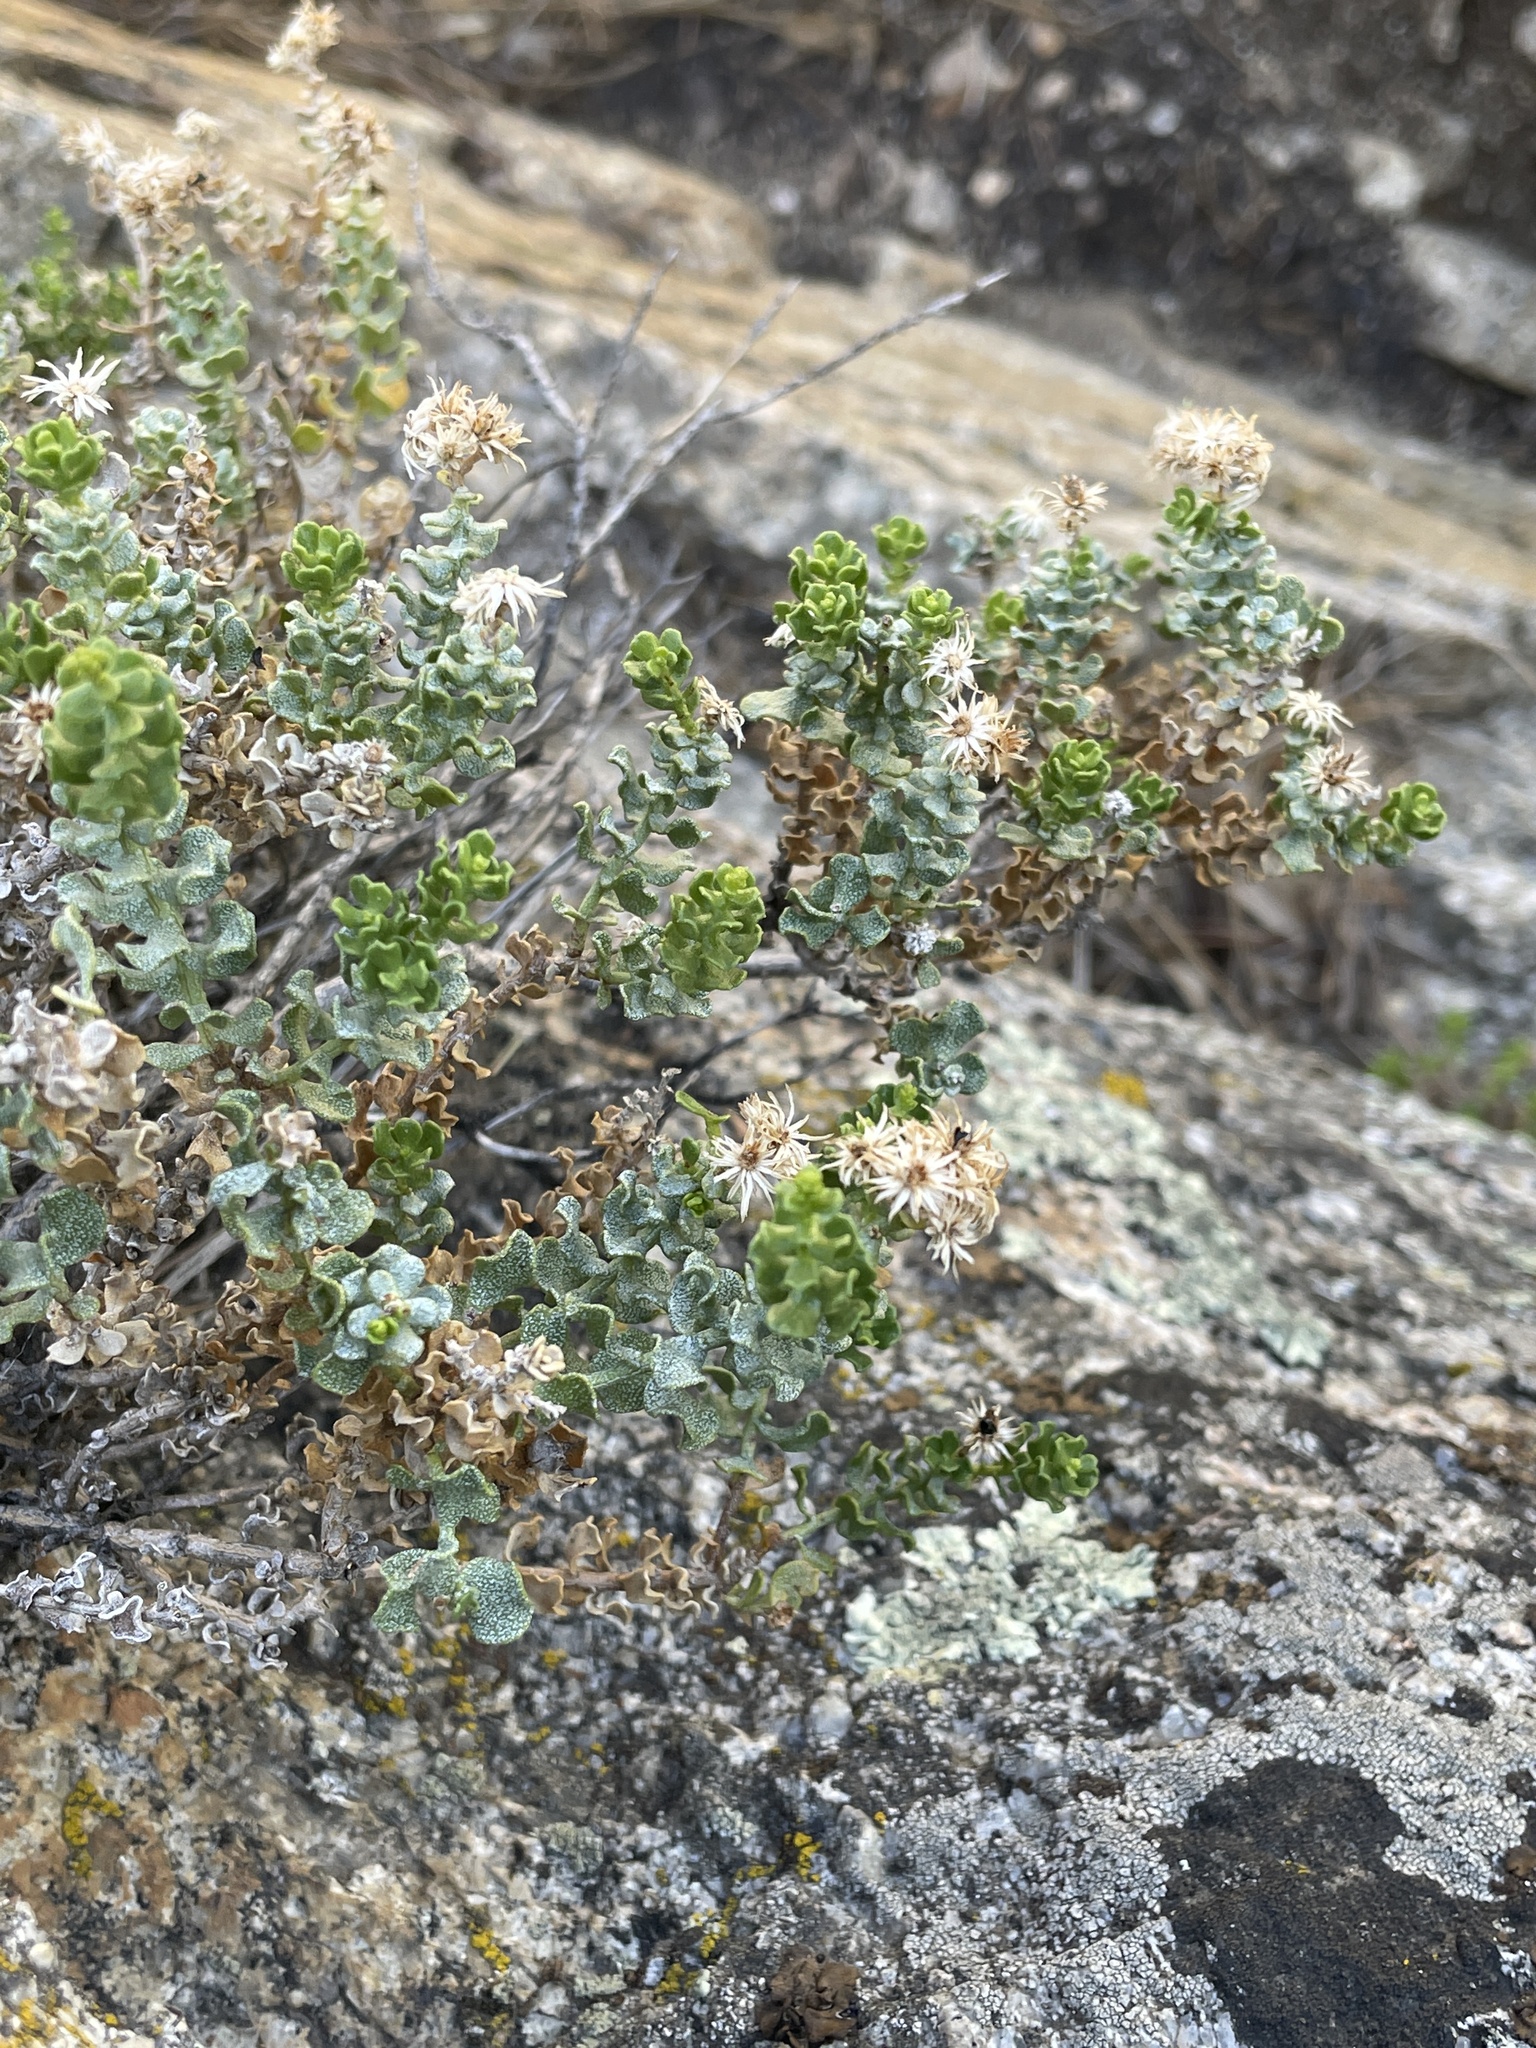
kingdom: Plantae
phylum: Tracheophyta
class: Magnoliopsida
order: Asterales
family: Asteraceae
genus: Ericameria
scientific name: Ericameria cuneata
